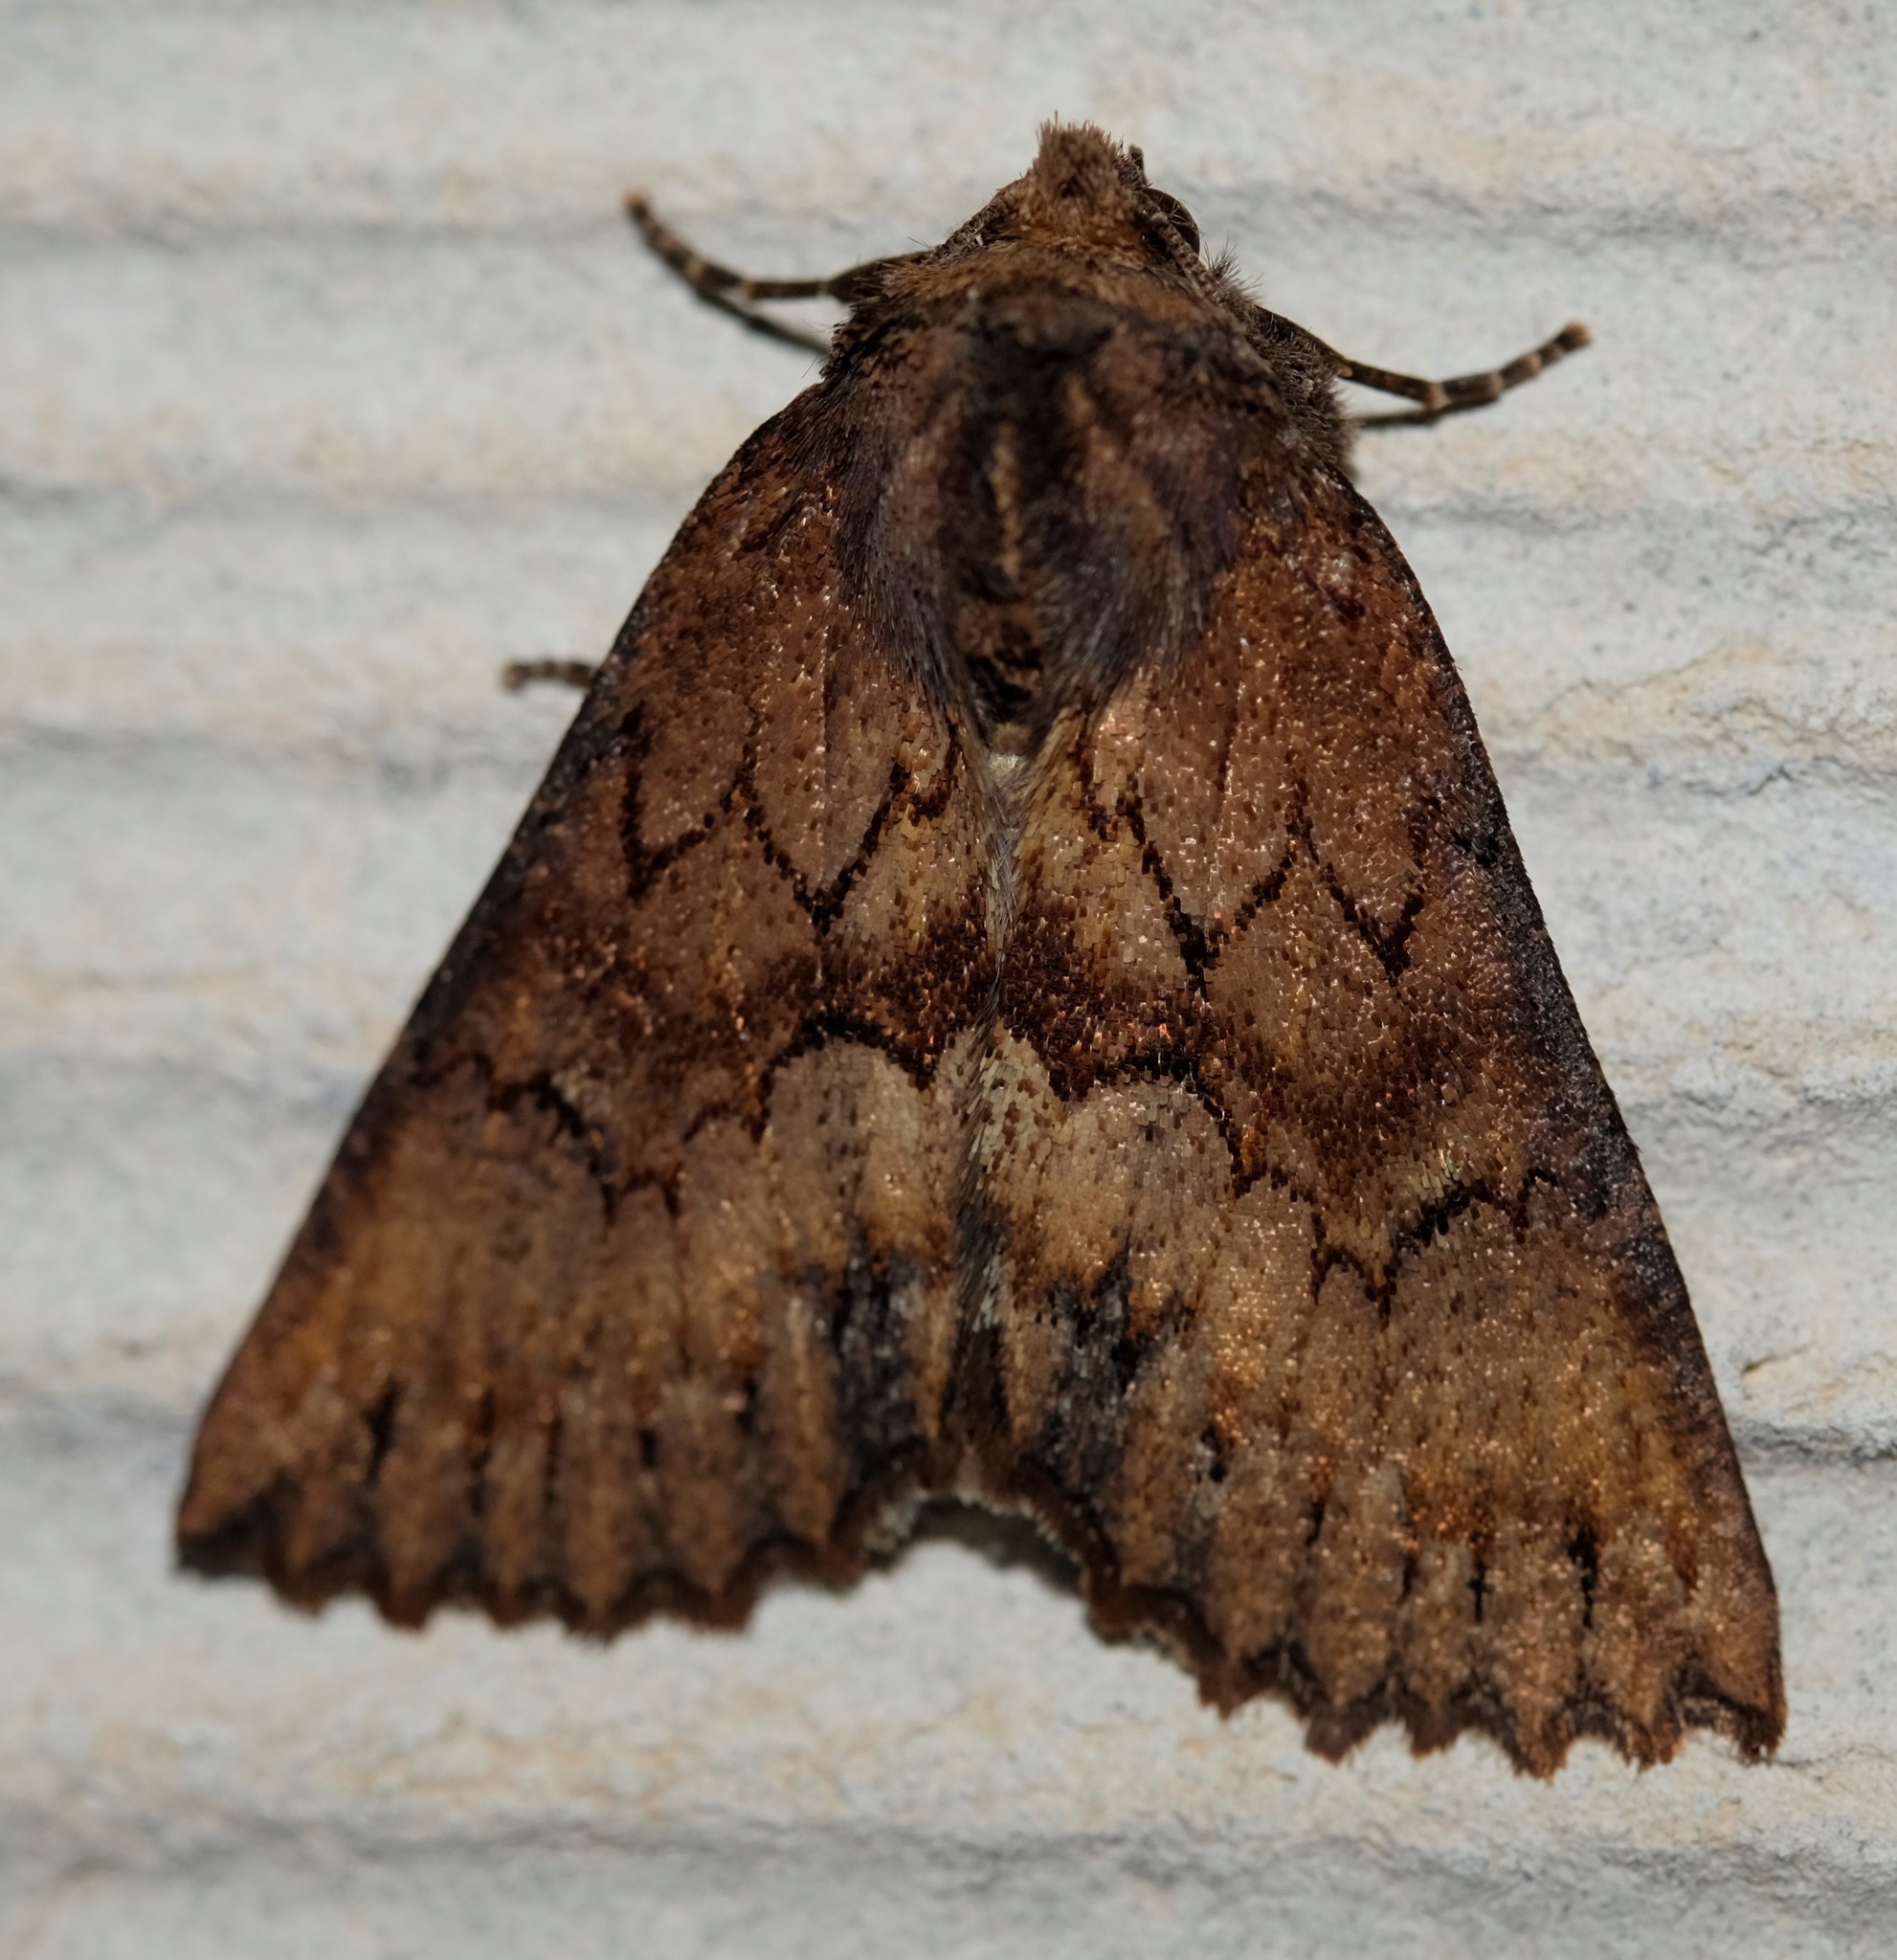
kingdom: Animalia
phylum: Arthropoda
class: Insecta
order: Lepidoptera
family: Geometridae
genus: Nisista
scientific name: Nisista serrata
